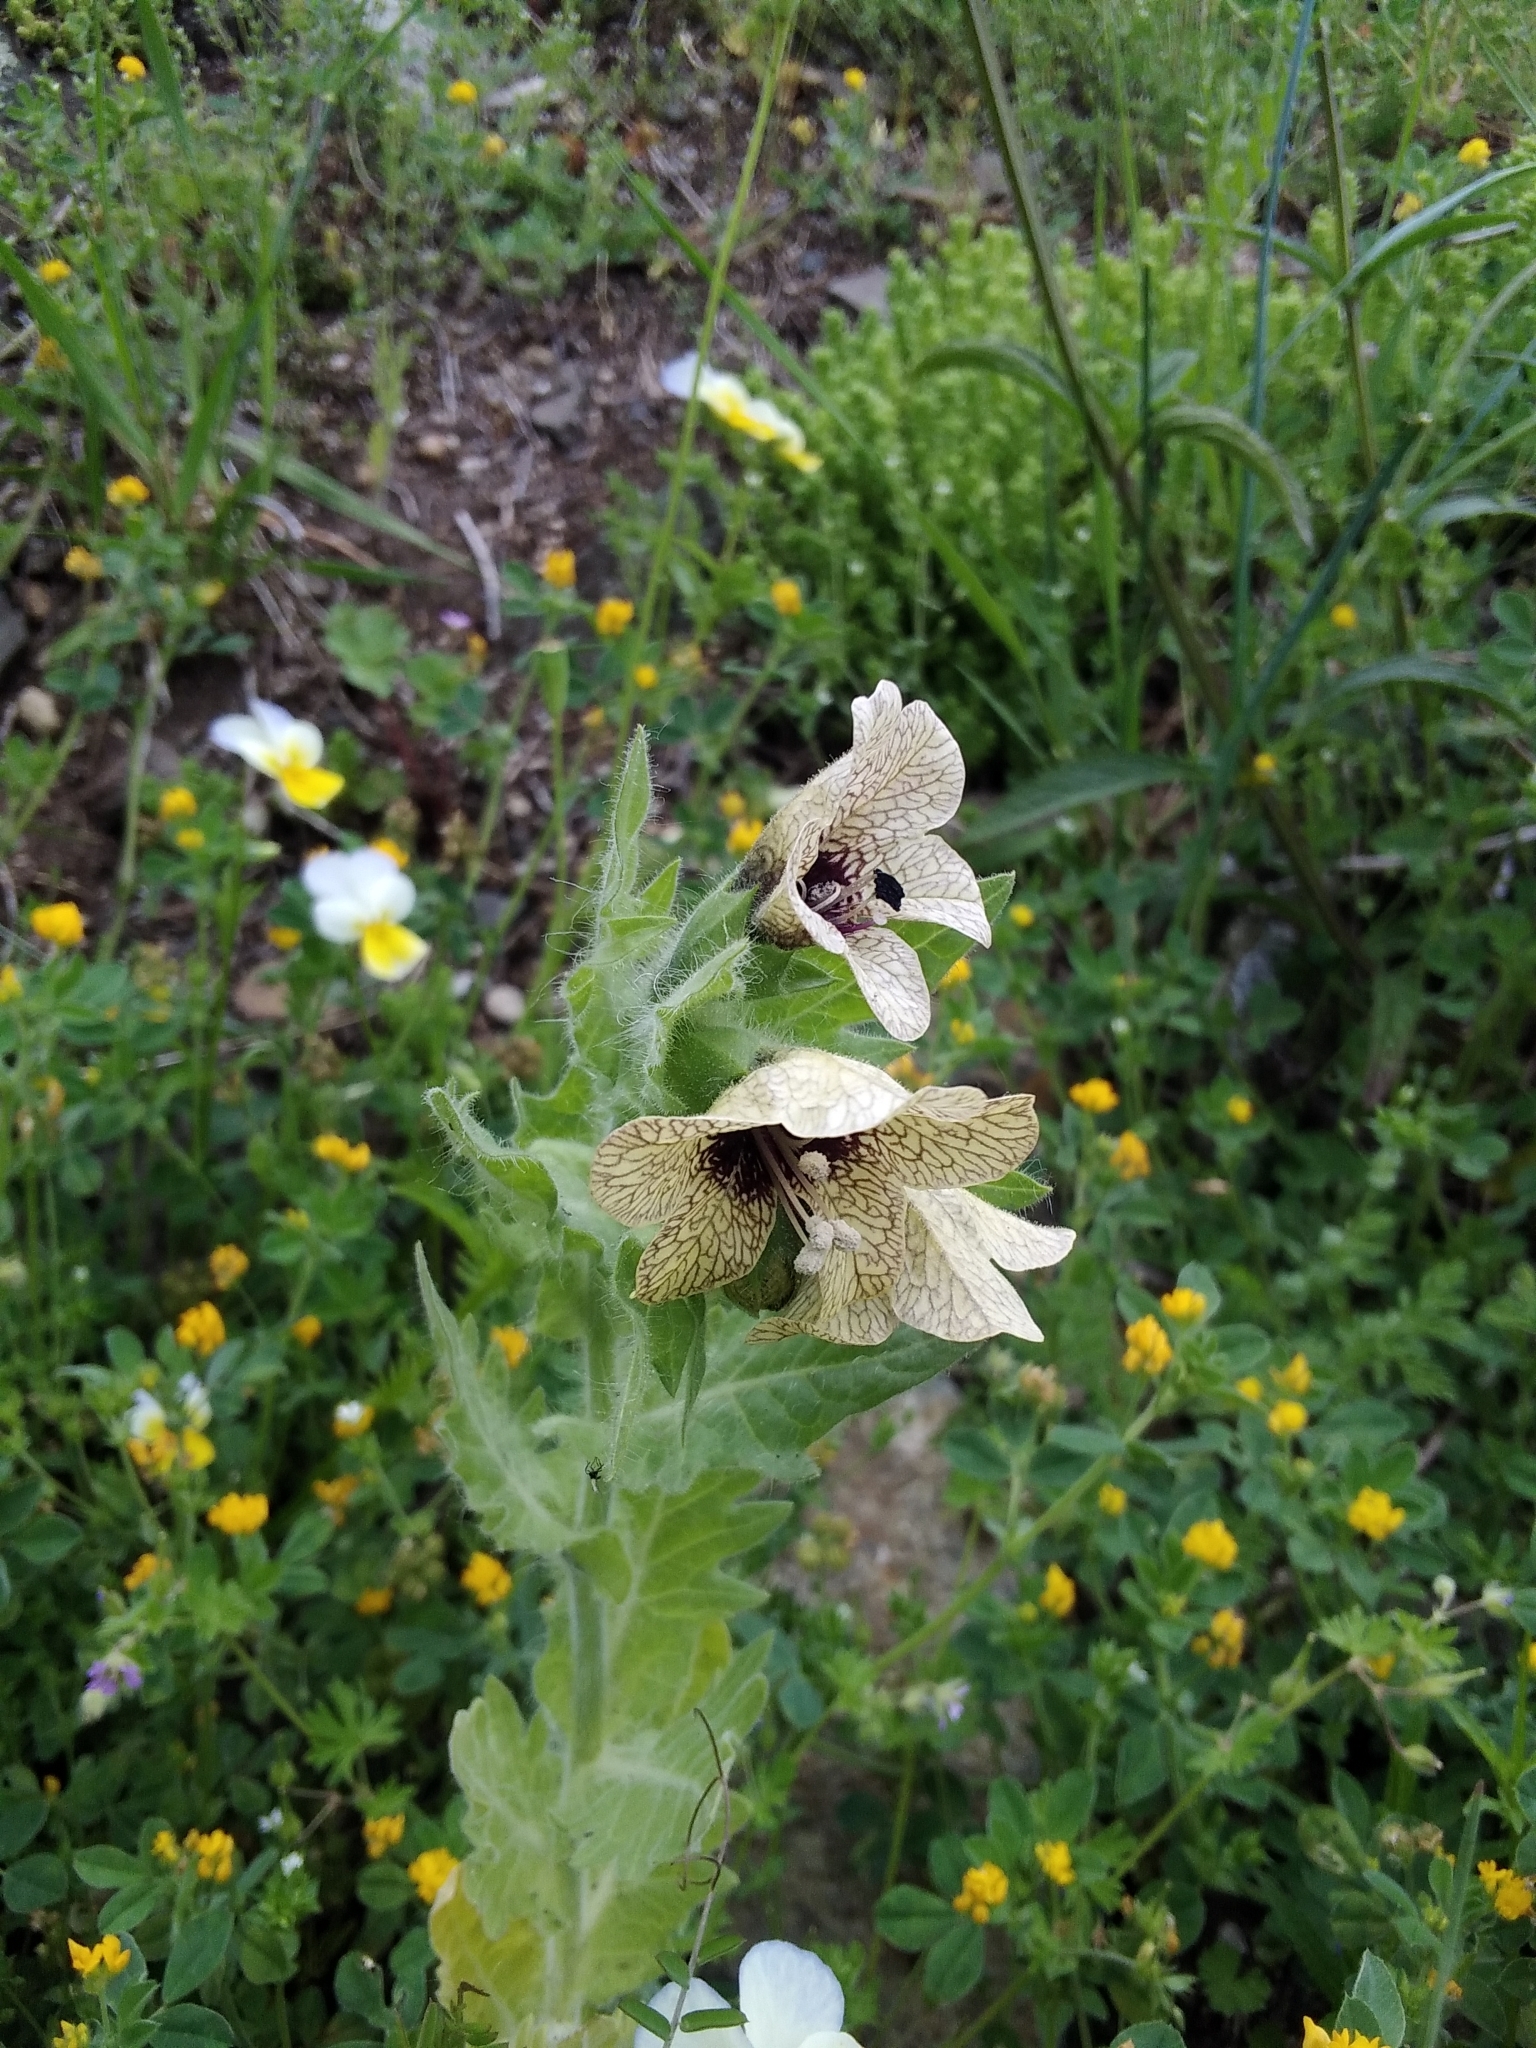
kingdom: Plantae
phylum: Tracheophyta
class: Magnoliopsida
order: Solanales
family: Solanaceae
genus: Hyoscyamus
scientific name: Hyoscyamus niger
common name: Henbane
